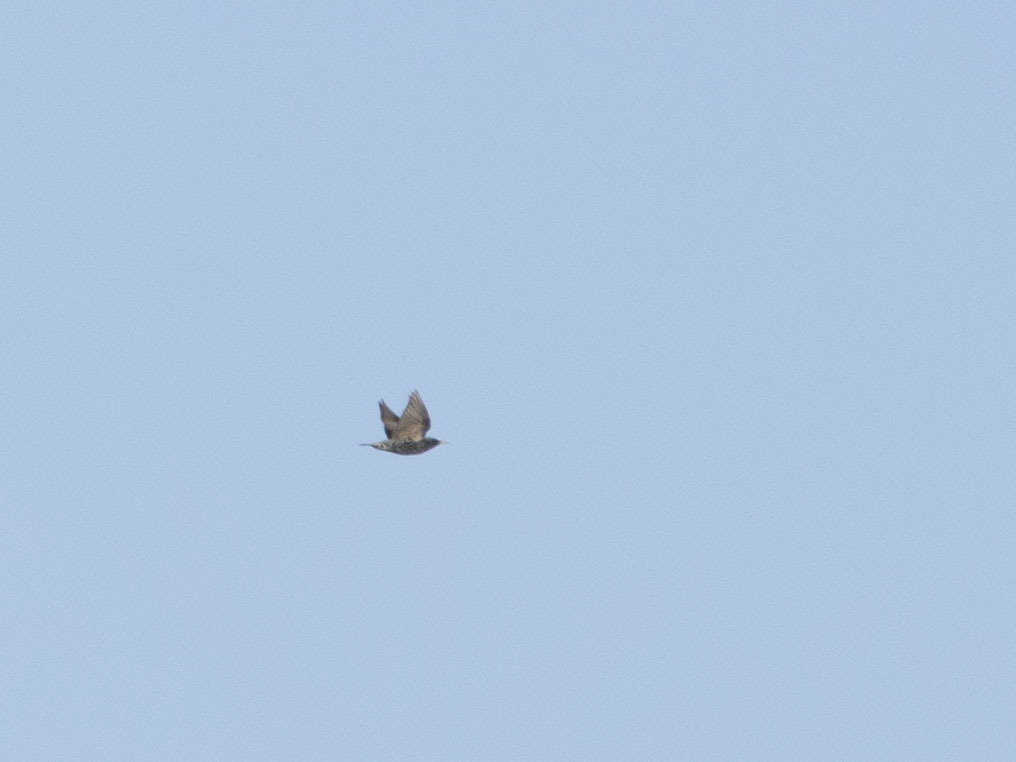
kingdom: Animalia
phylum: Chordata
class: Aves
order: Passeriformes
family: Sturnidae
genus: Sturnus
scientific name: Sturnus vulgaris
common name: Common starling
